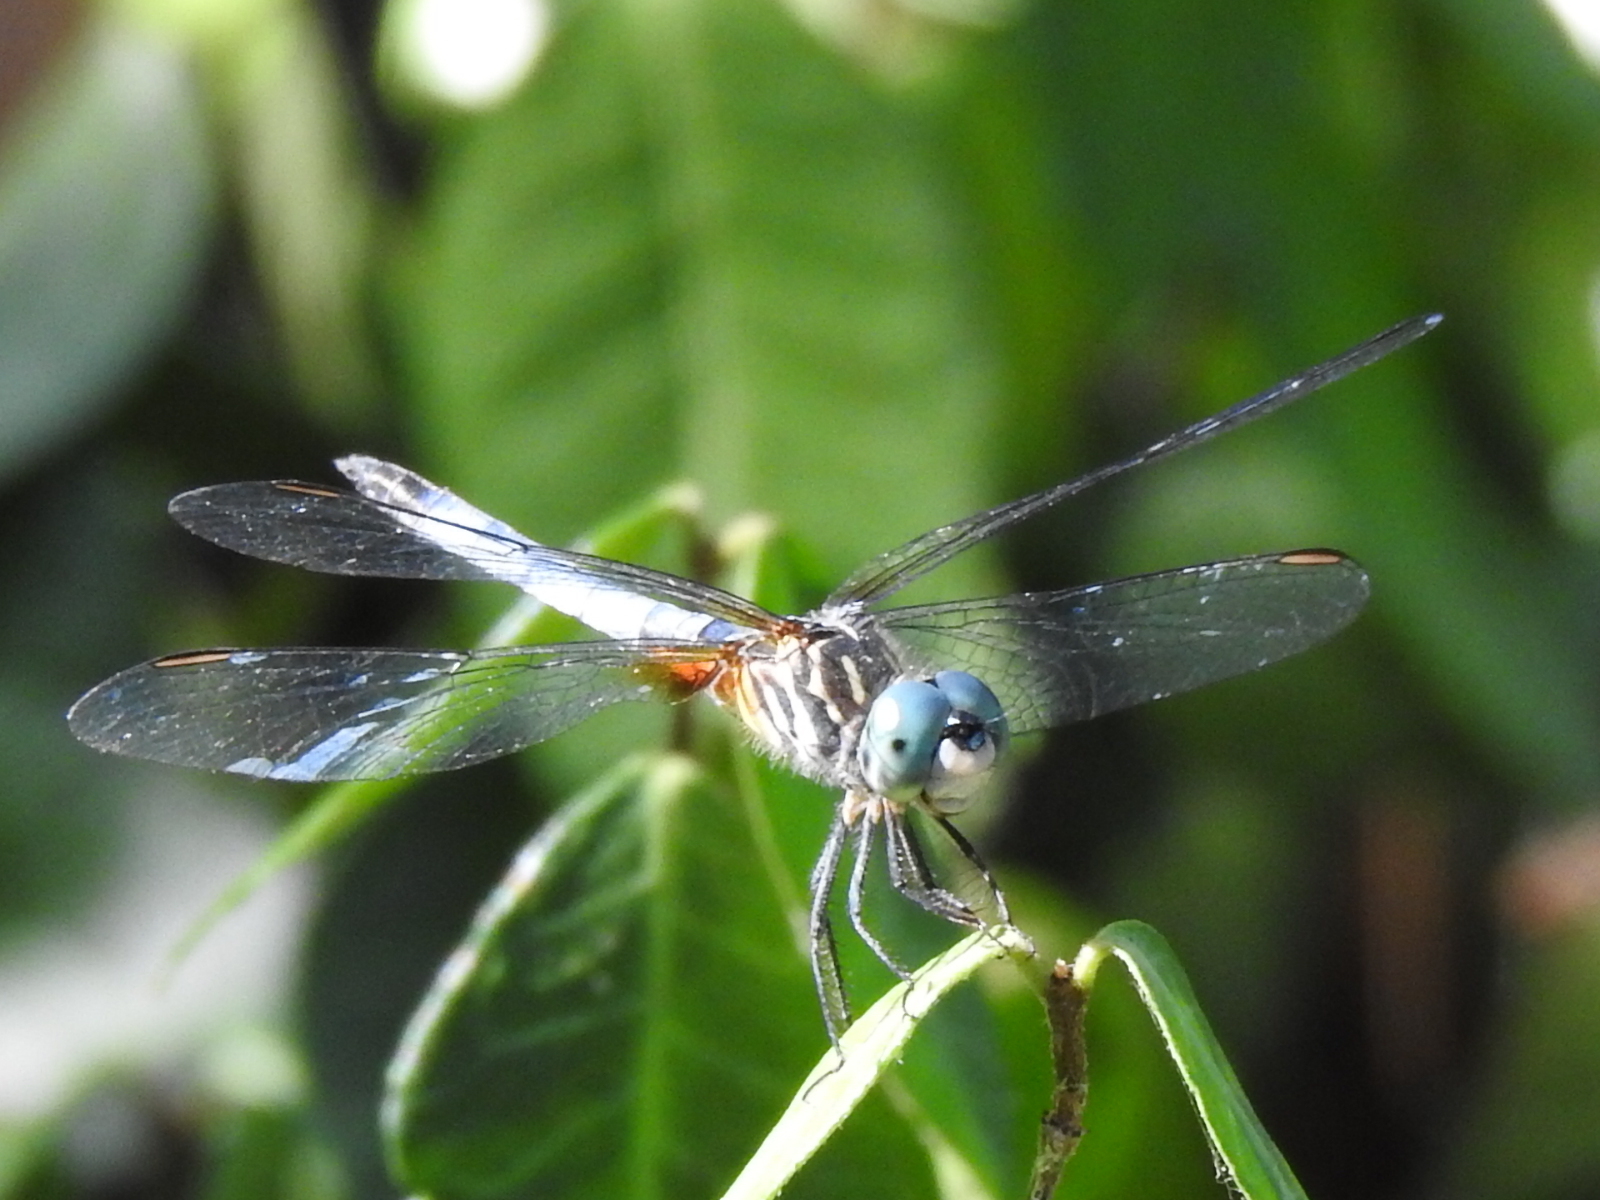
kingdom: Animalia
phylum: Arthropoda
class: Insecta
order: Odonata
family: Libellulidae
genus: Pachydiplax
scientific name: Pachydiplax longipennis
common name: Blue dasher
